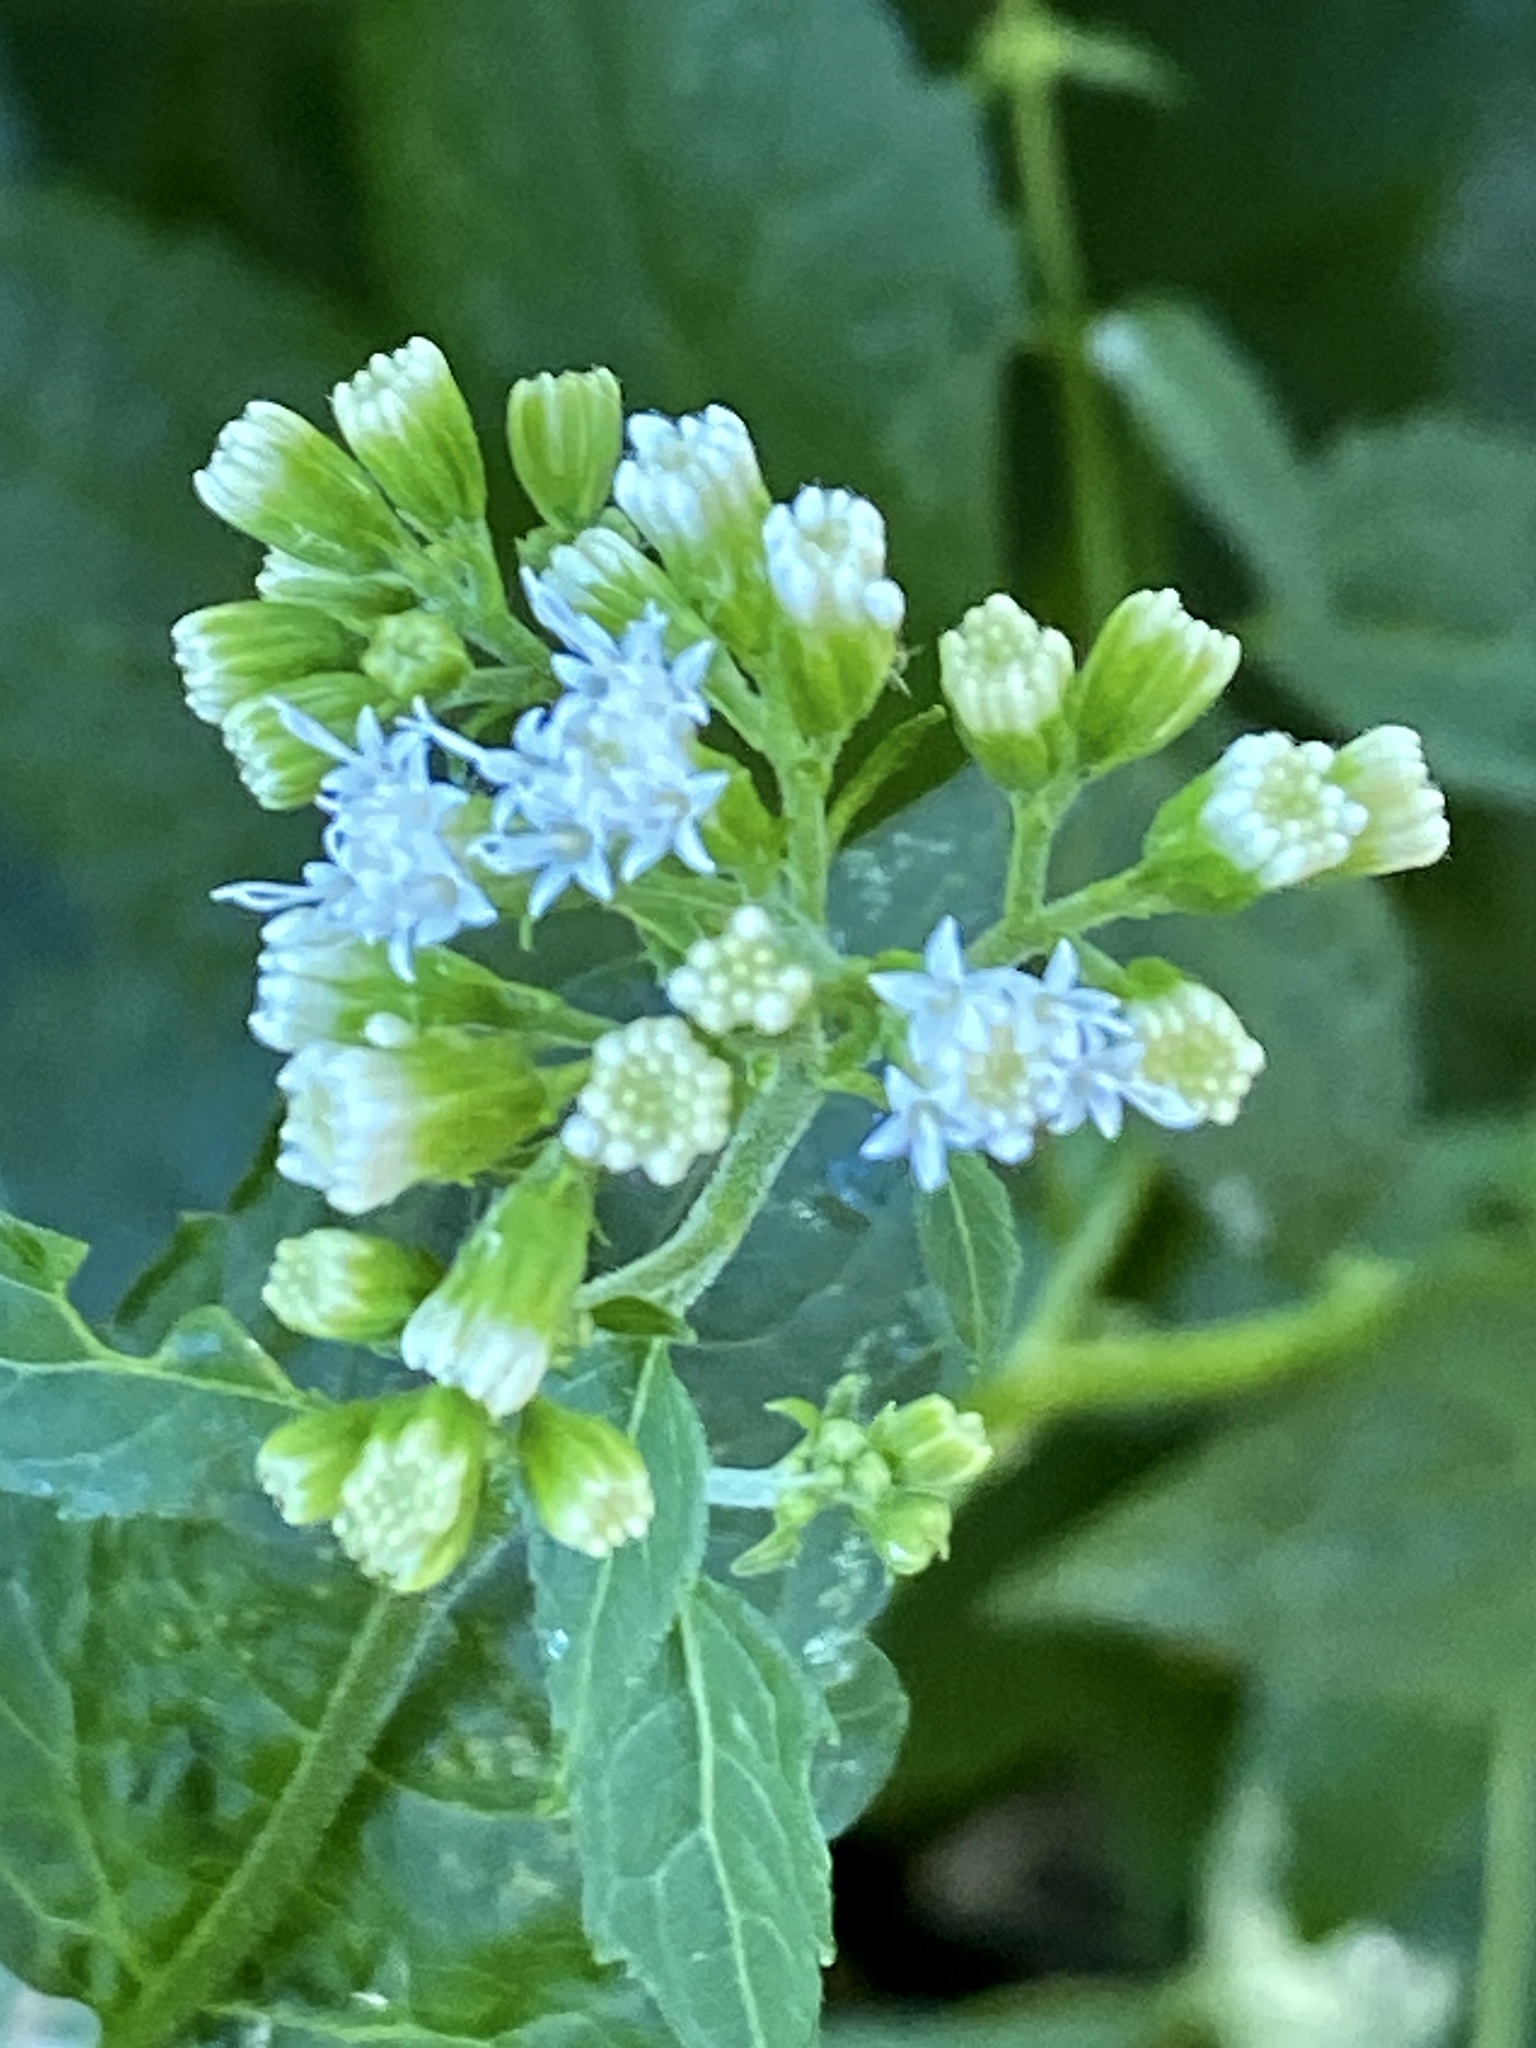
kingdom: Plantae
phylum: Tracheophyta
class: Magnoliopsida
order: Asterales
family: Asteraceae
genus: Ageratina
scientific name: Ageratina altissima
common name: White snakeroot
